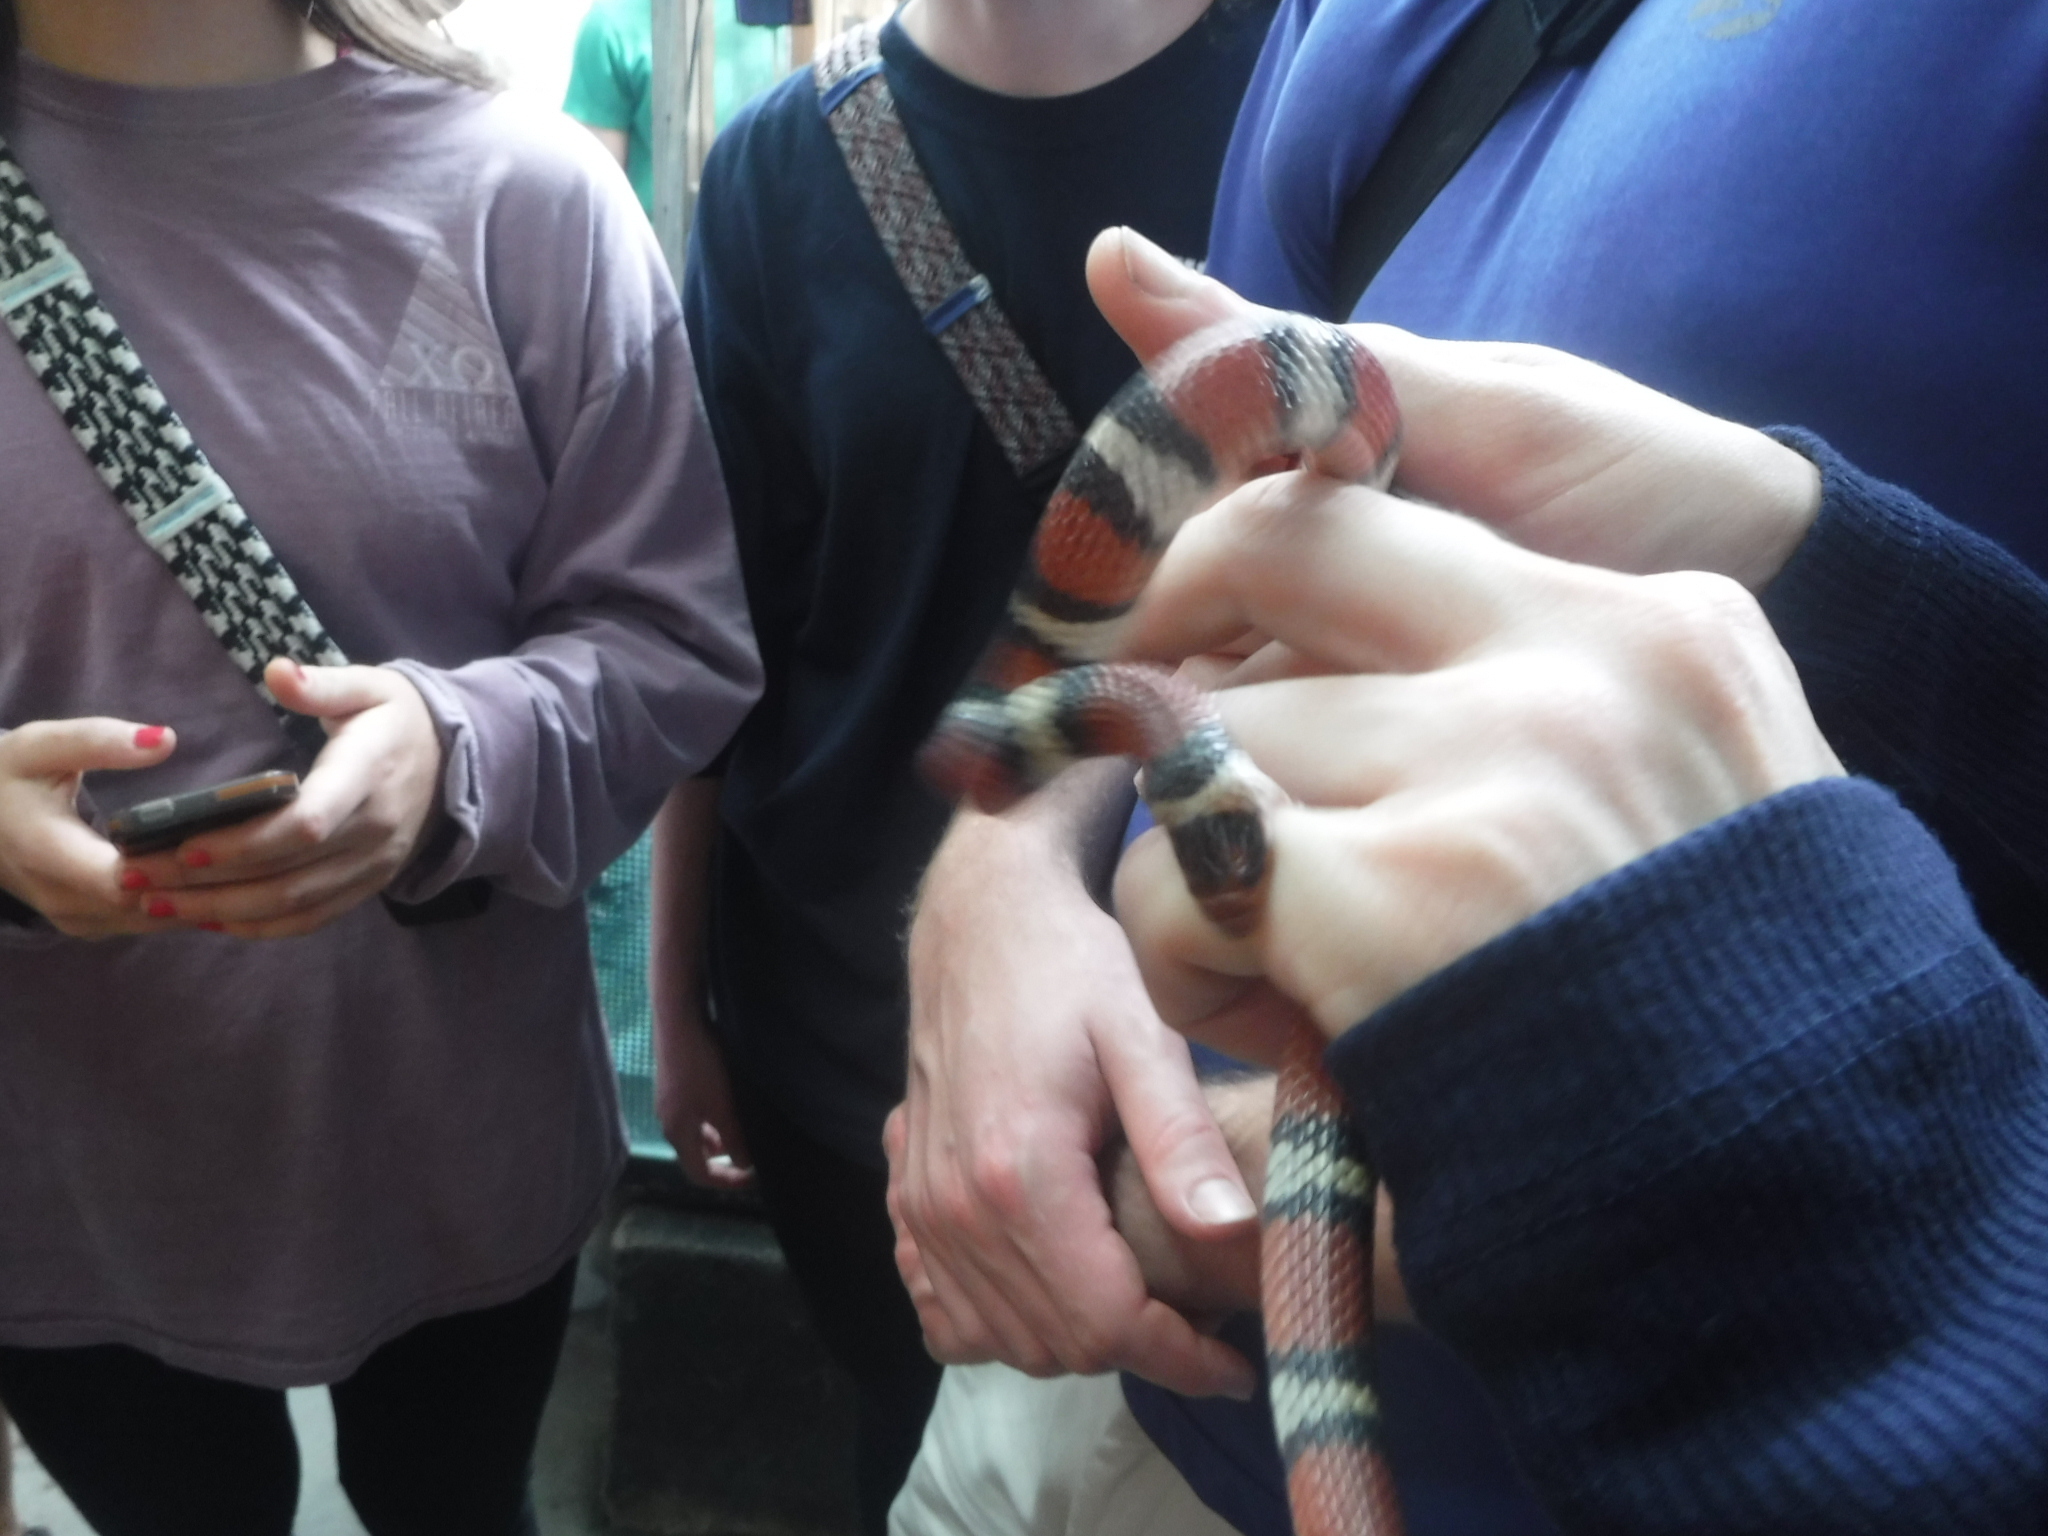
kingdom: Animalia
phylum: Chordata
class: Squamata
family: Colubridae
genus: Lampropeltis
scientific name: Lampropeltis elapsoides
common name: Scarlet kingsnake
